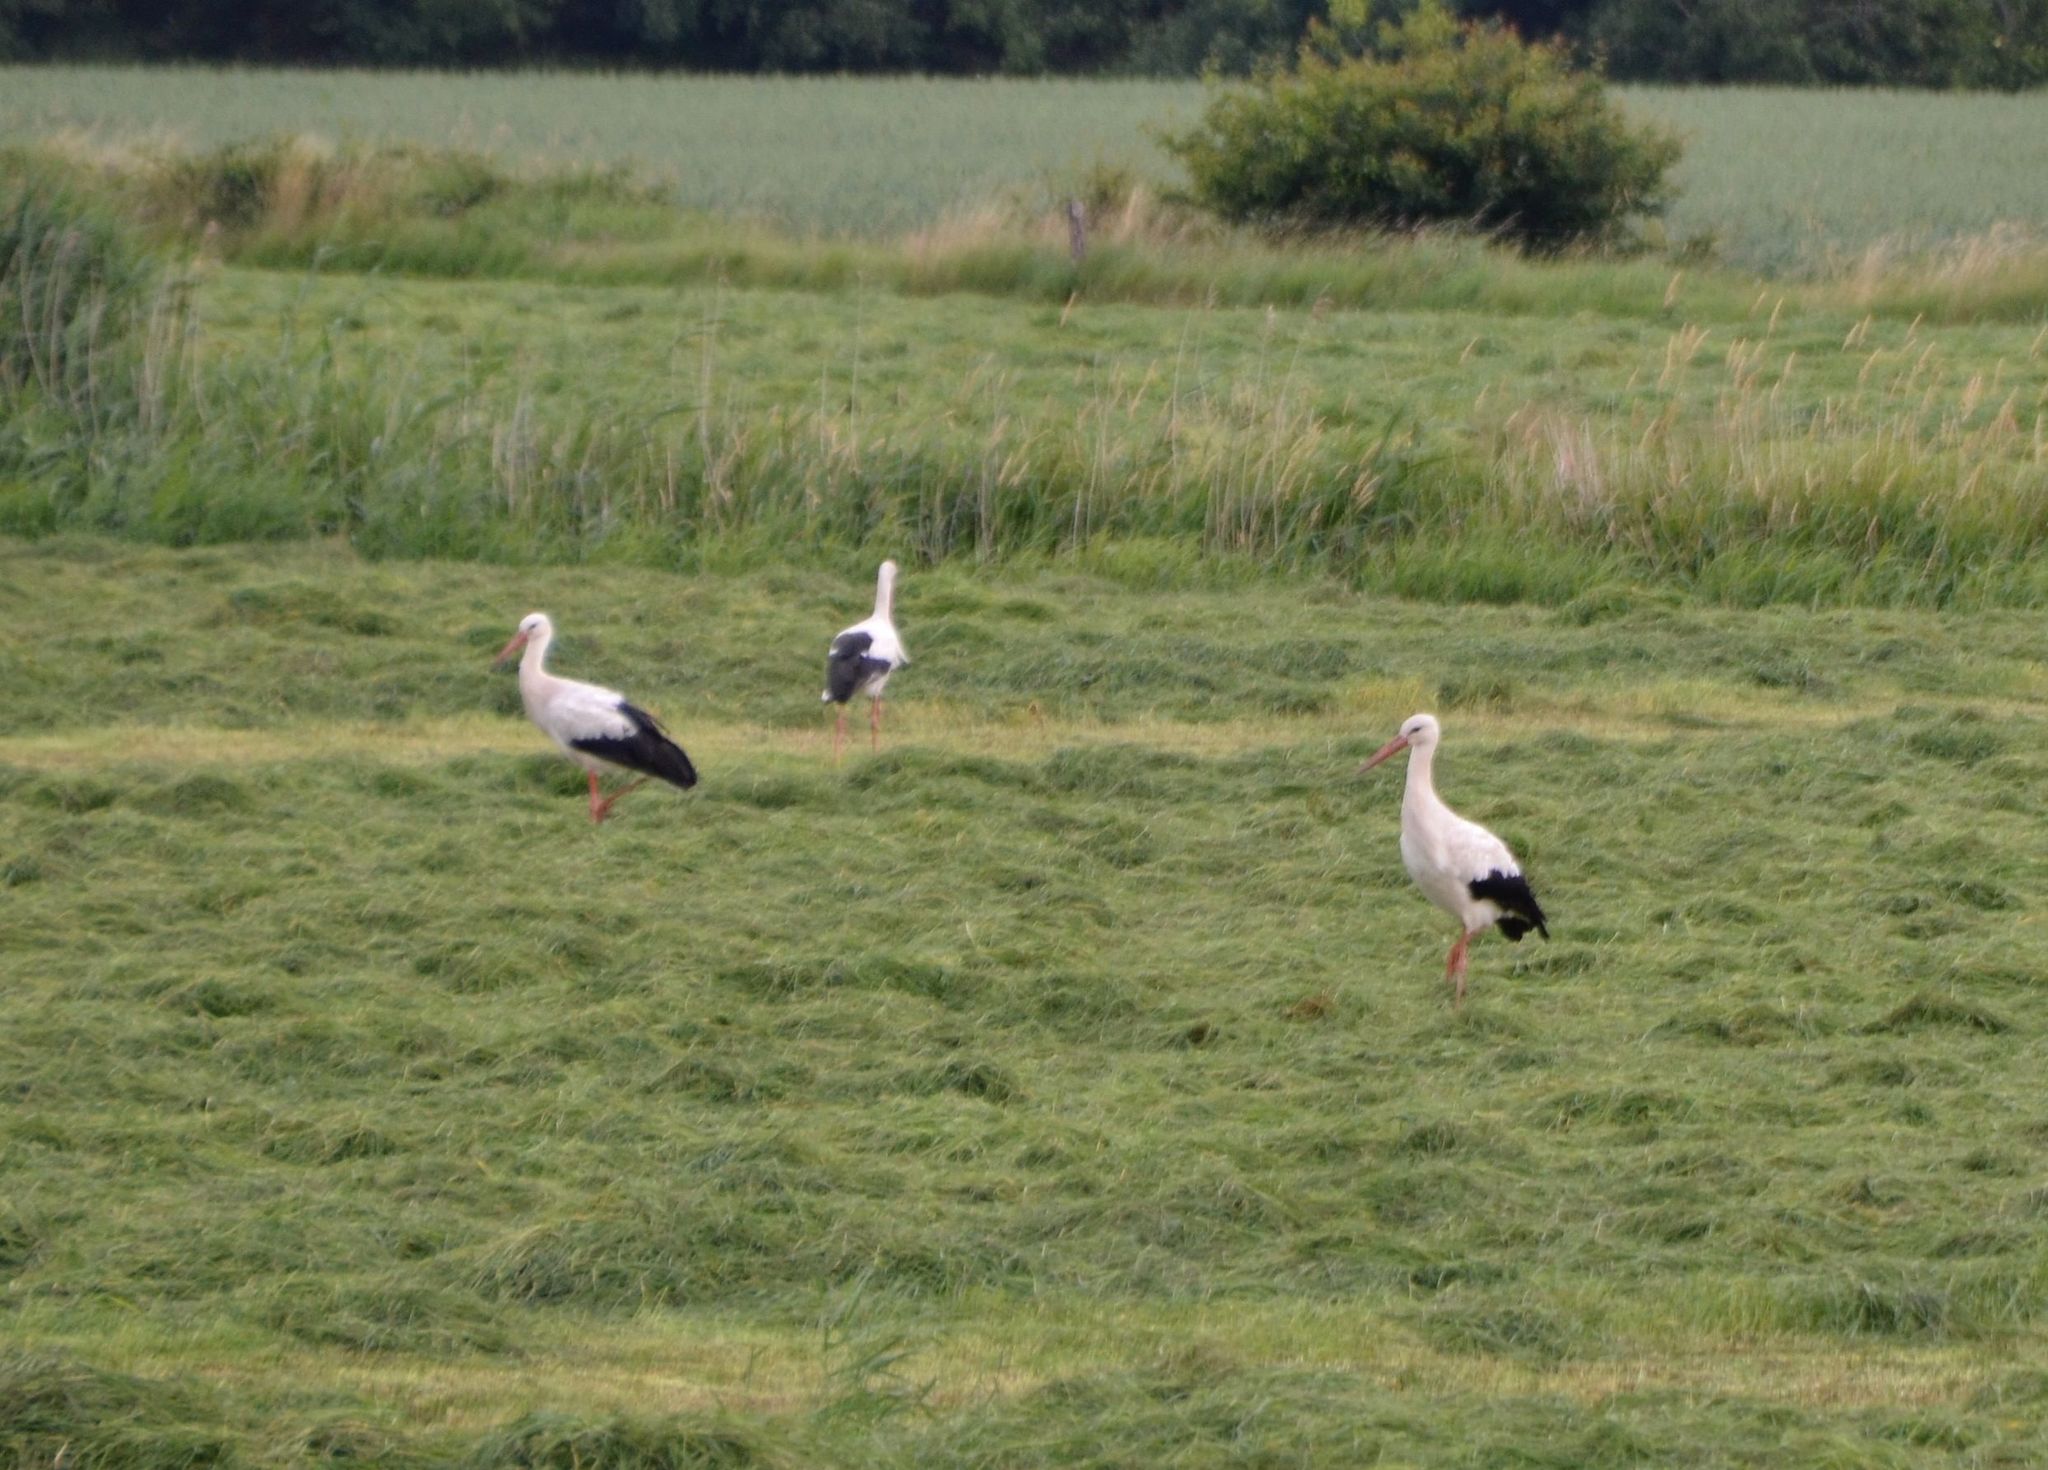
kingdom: Animalia
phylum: Chordata
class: Aves
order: Ciconiiformes
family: Ciconiidae
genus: Ciconia
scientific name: Ciconia ciconia
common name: White stork
